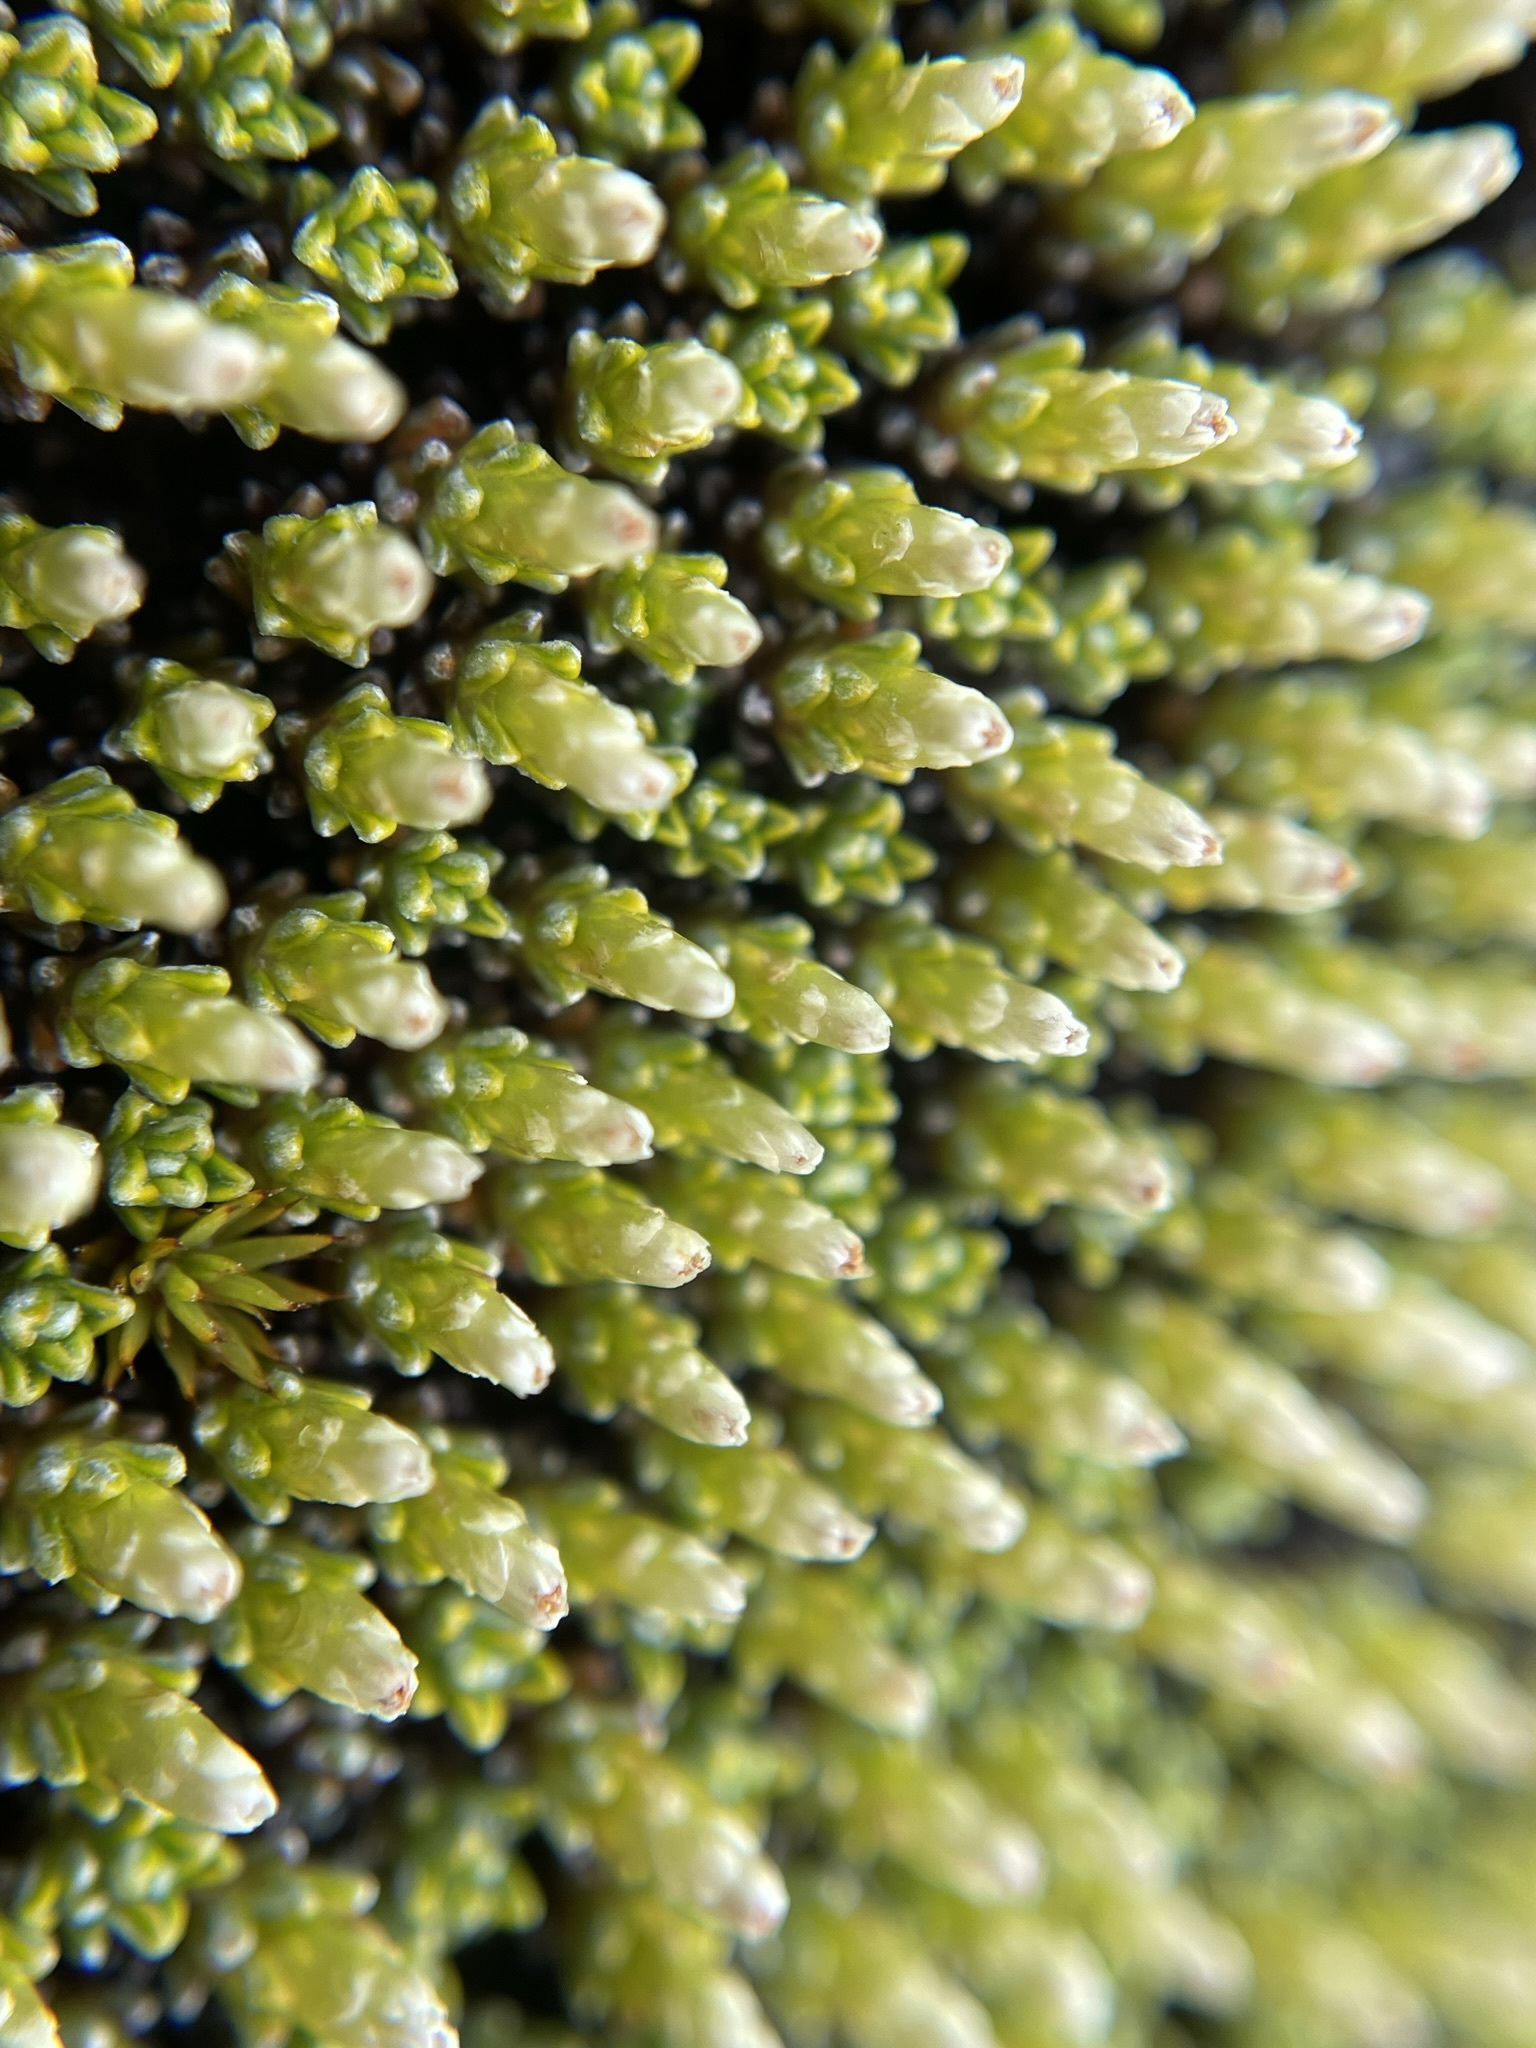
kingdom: Plantae
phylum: Tracheophyta
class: Magnoliopsida
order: Asterales
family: Asteraceae
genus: Raoulia
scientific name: Raoulia haastii
